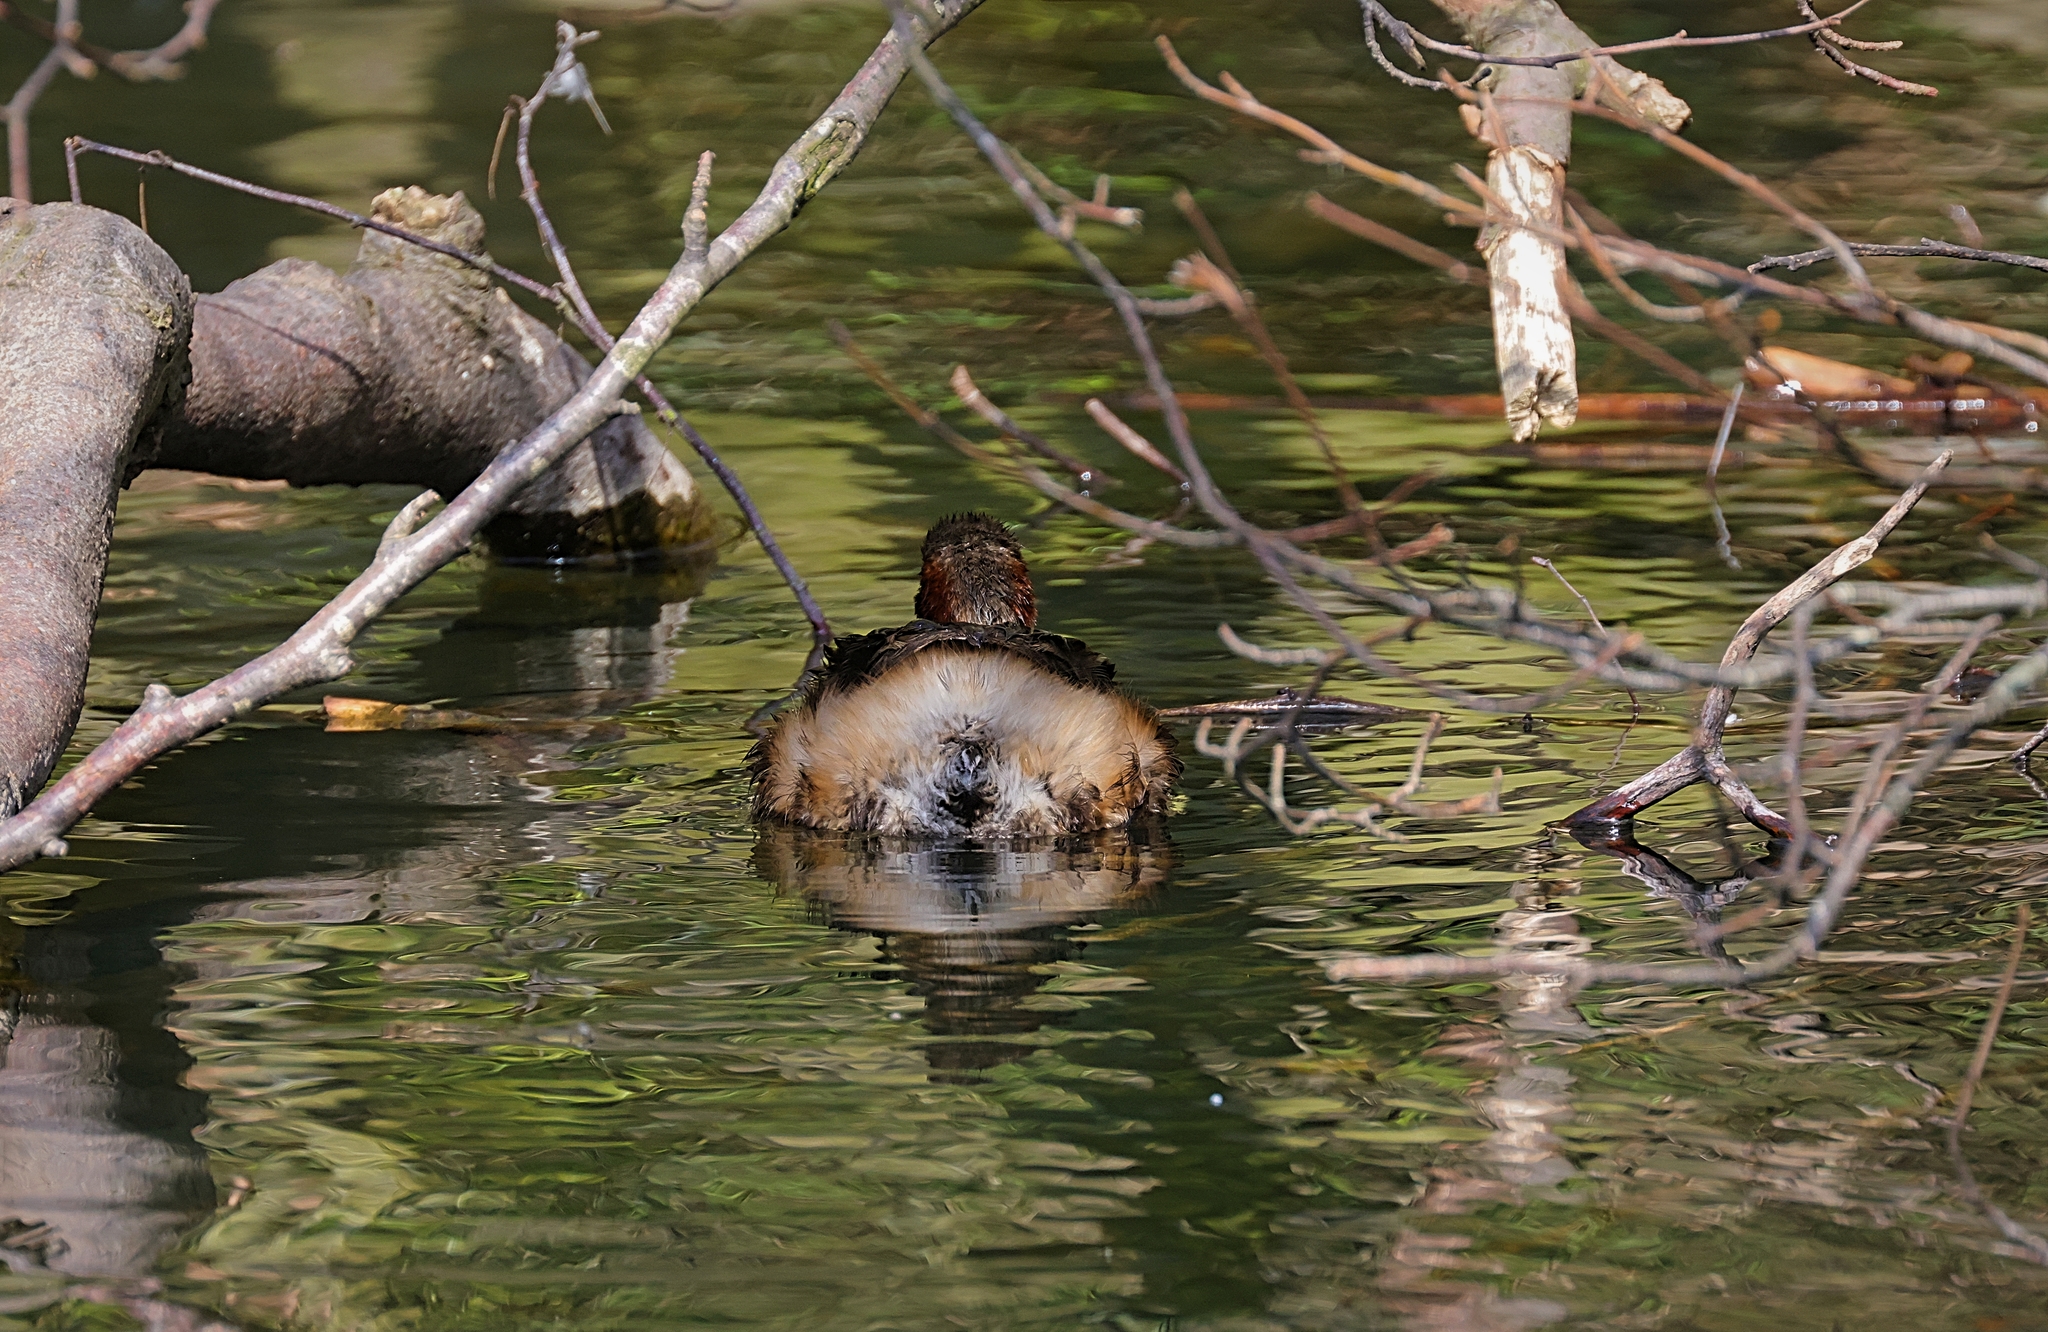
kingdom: Animalia
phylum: Chordata
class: Aves
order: Podicipediformes
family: Podicipedidae
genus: Tachybaptus
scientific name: Tachybaptus ruficollis
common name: Little grebe
